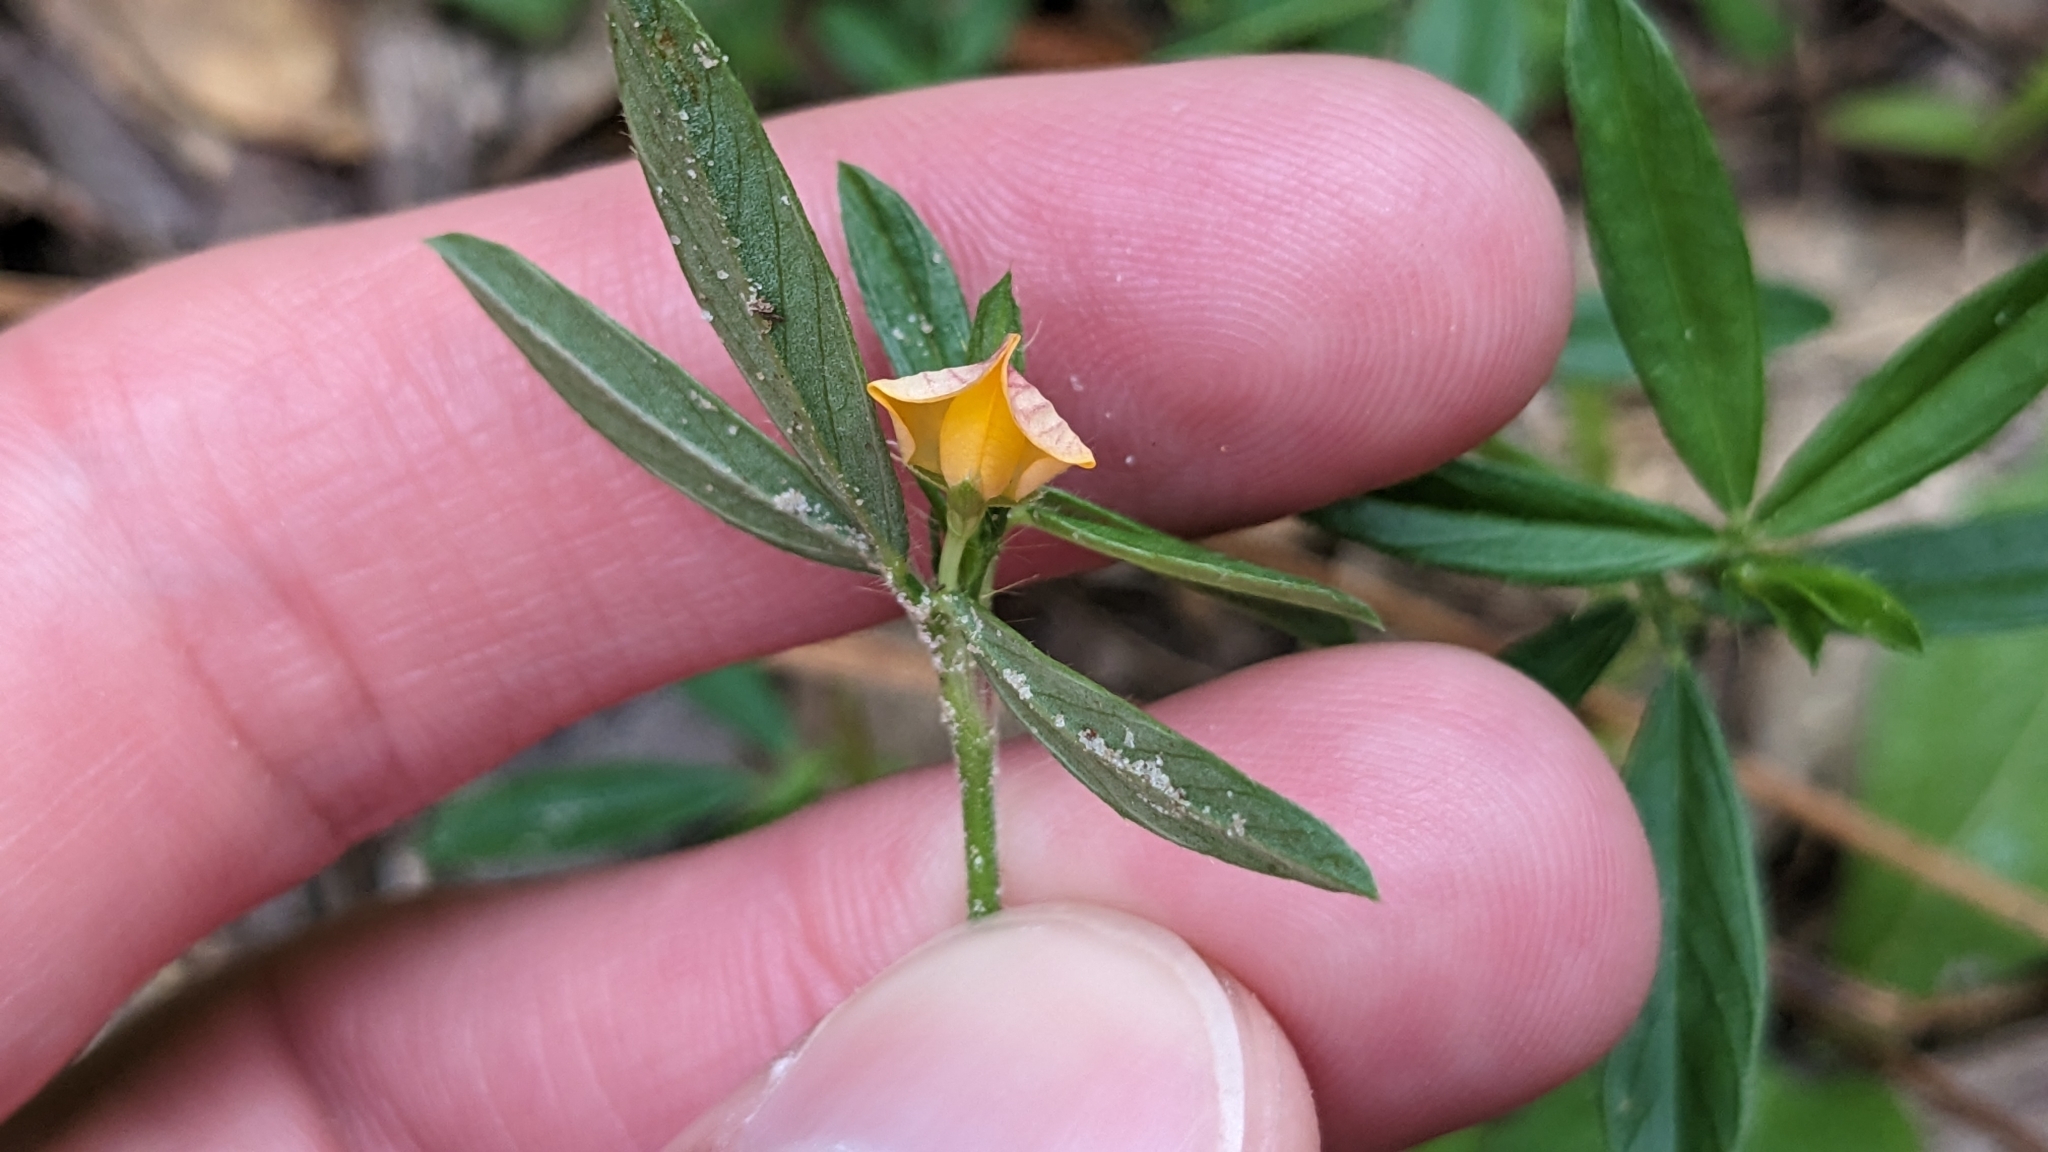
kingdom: Plantae
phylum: Tracheophyta
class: Magnoliopsida
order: Fabales
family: Fabaceae
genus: Stylosanthes
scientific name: Stylosanthes biflora
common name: Two-flower pencil-flower
